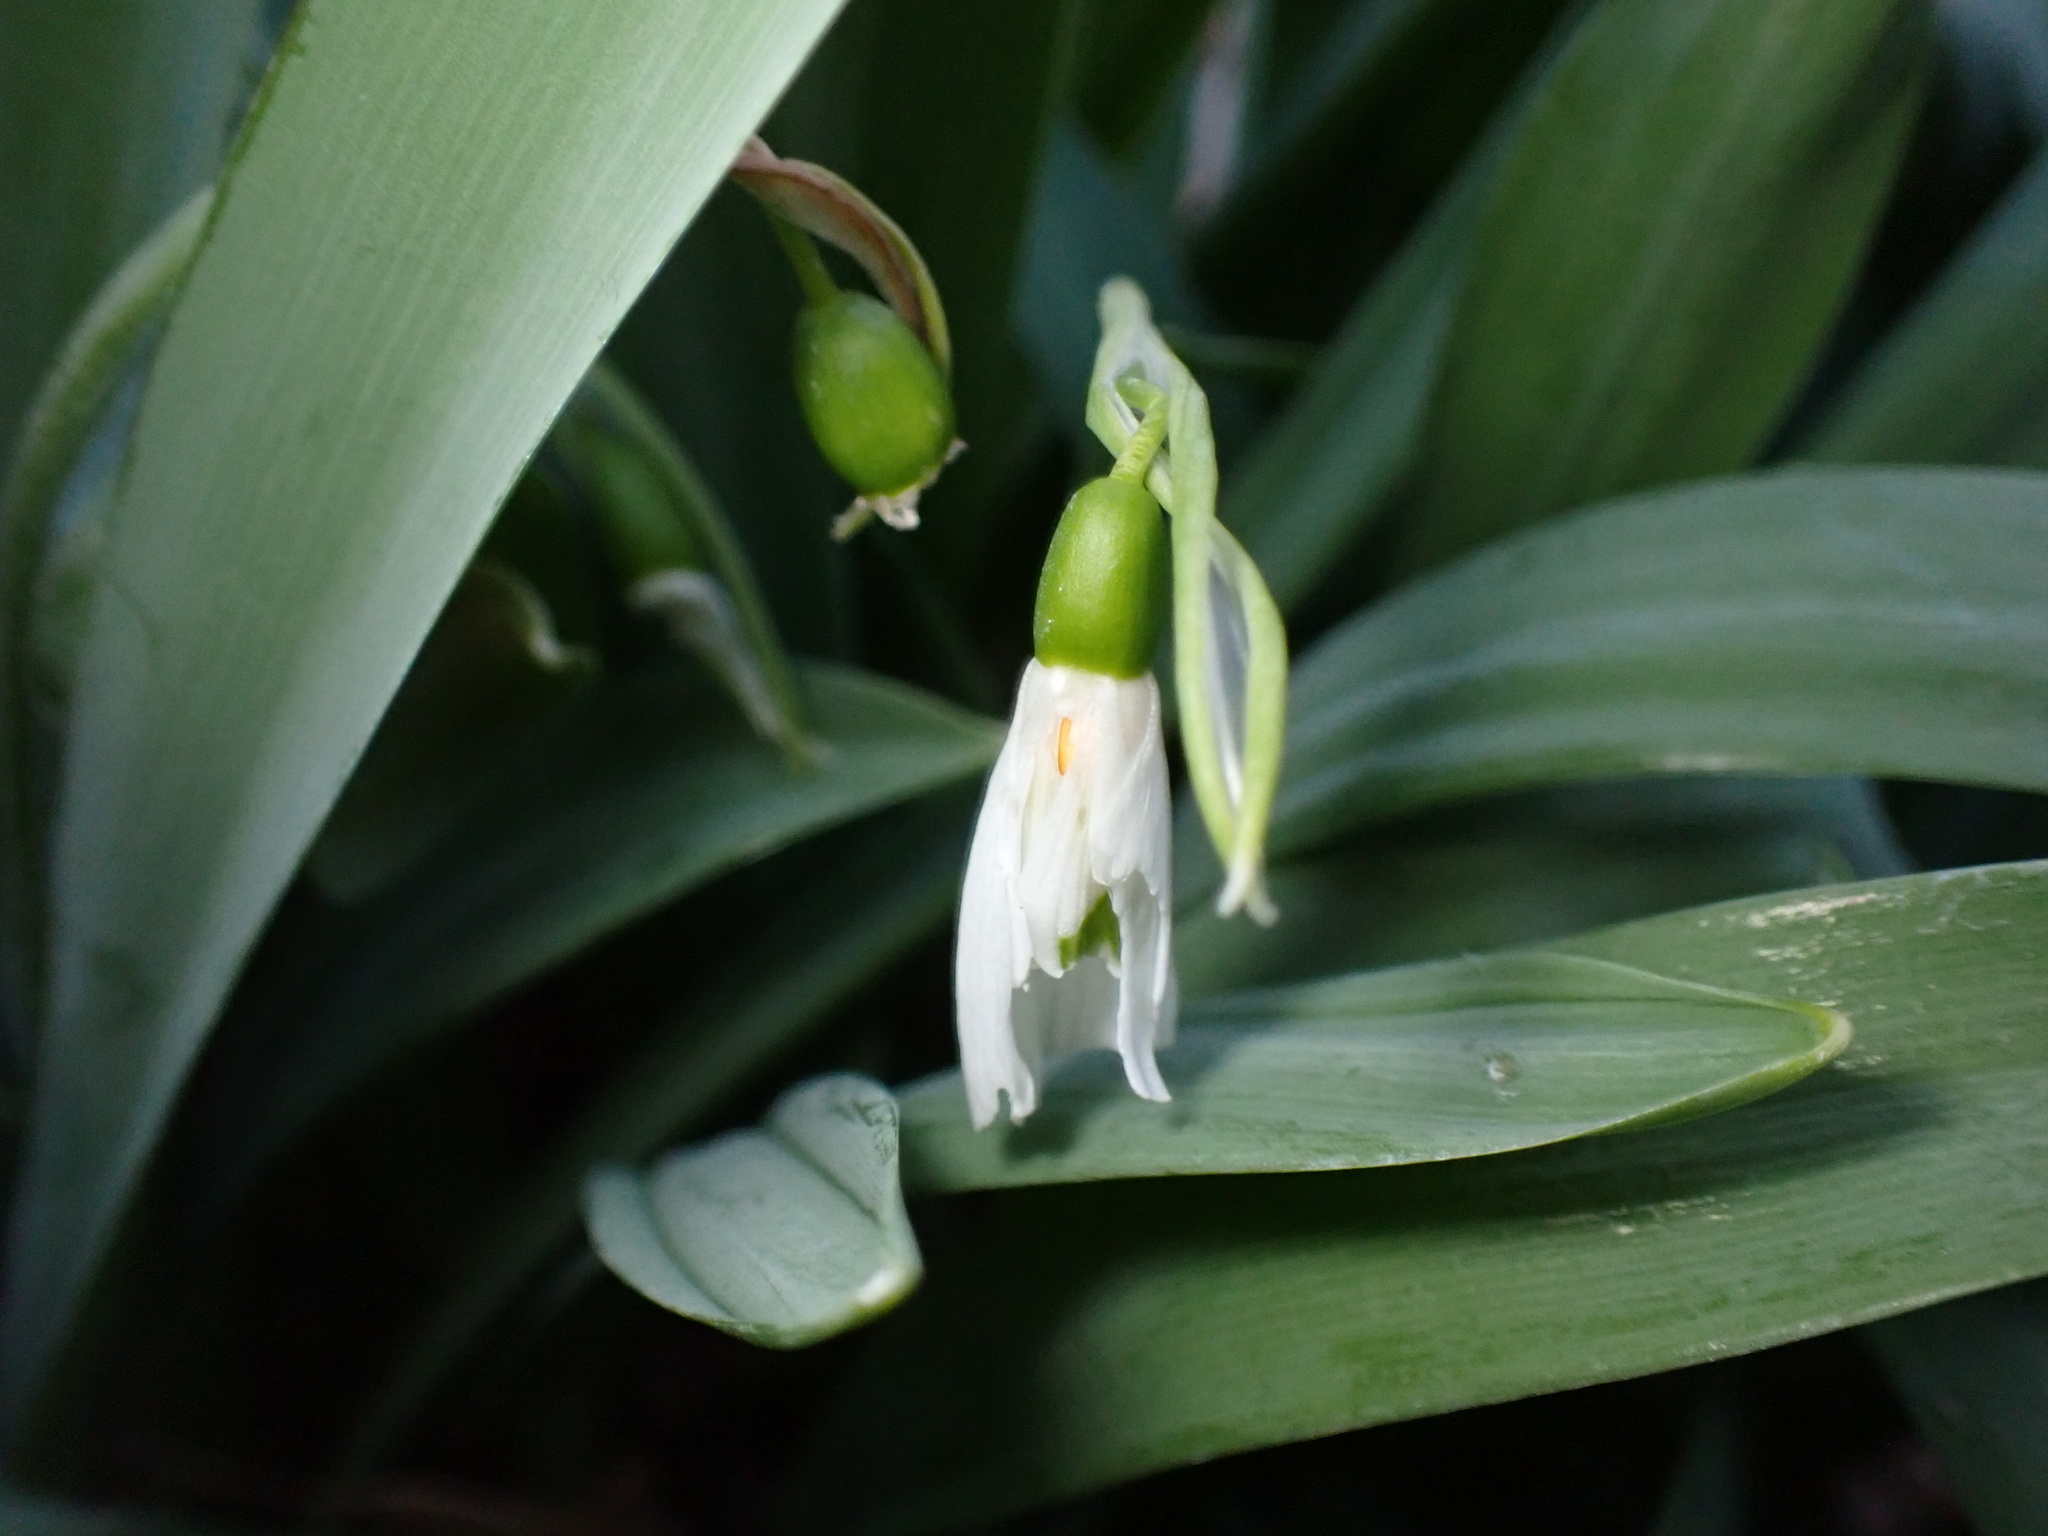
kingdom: Plantae
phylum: Tracheophyta
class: Liliopsida
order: Asparagales
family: Amaryllidaceae
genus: Galanthus
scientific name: Galanthus elwesii
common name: Greater snowdrop
